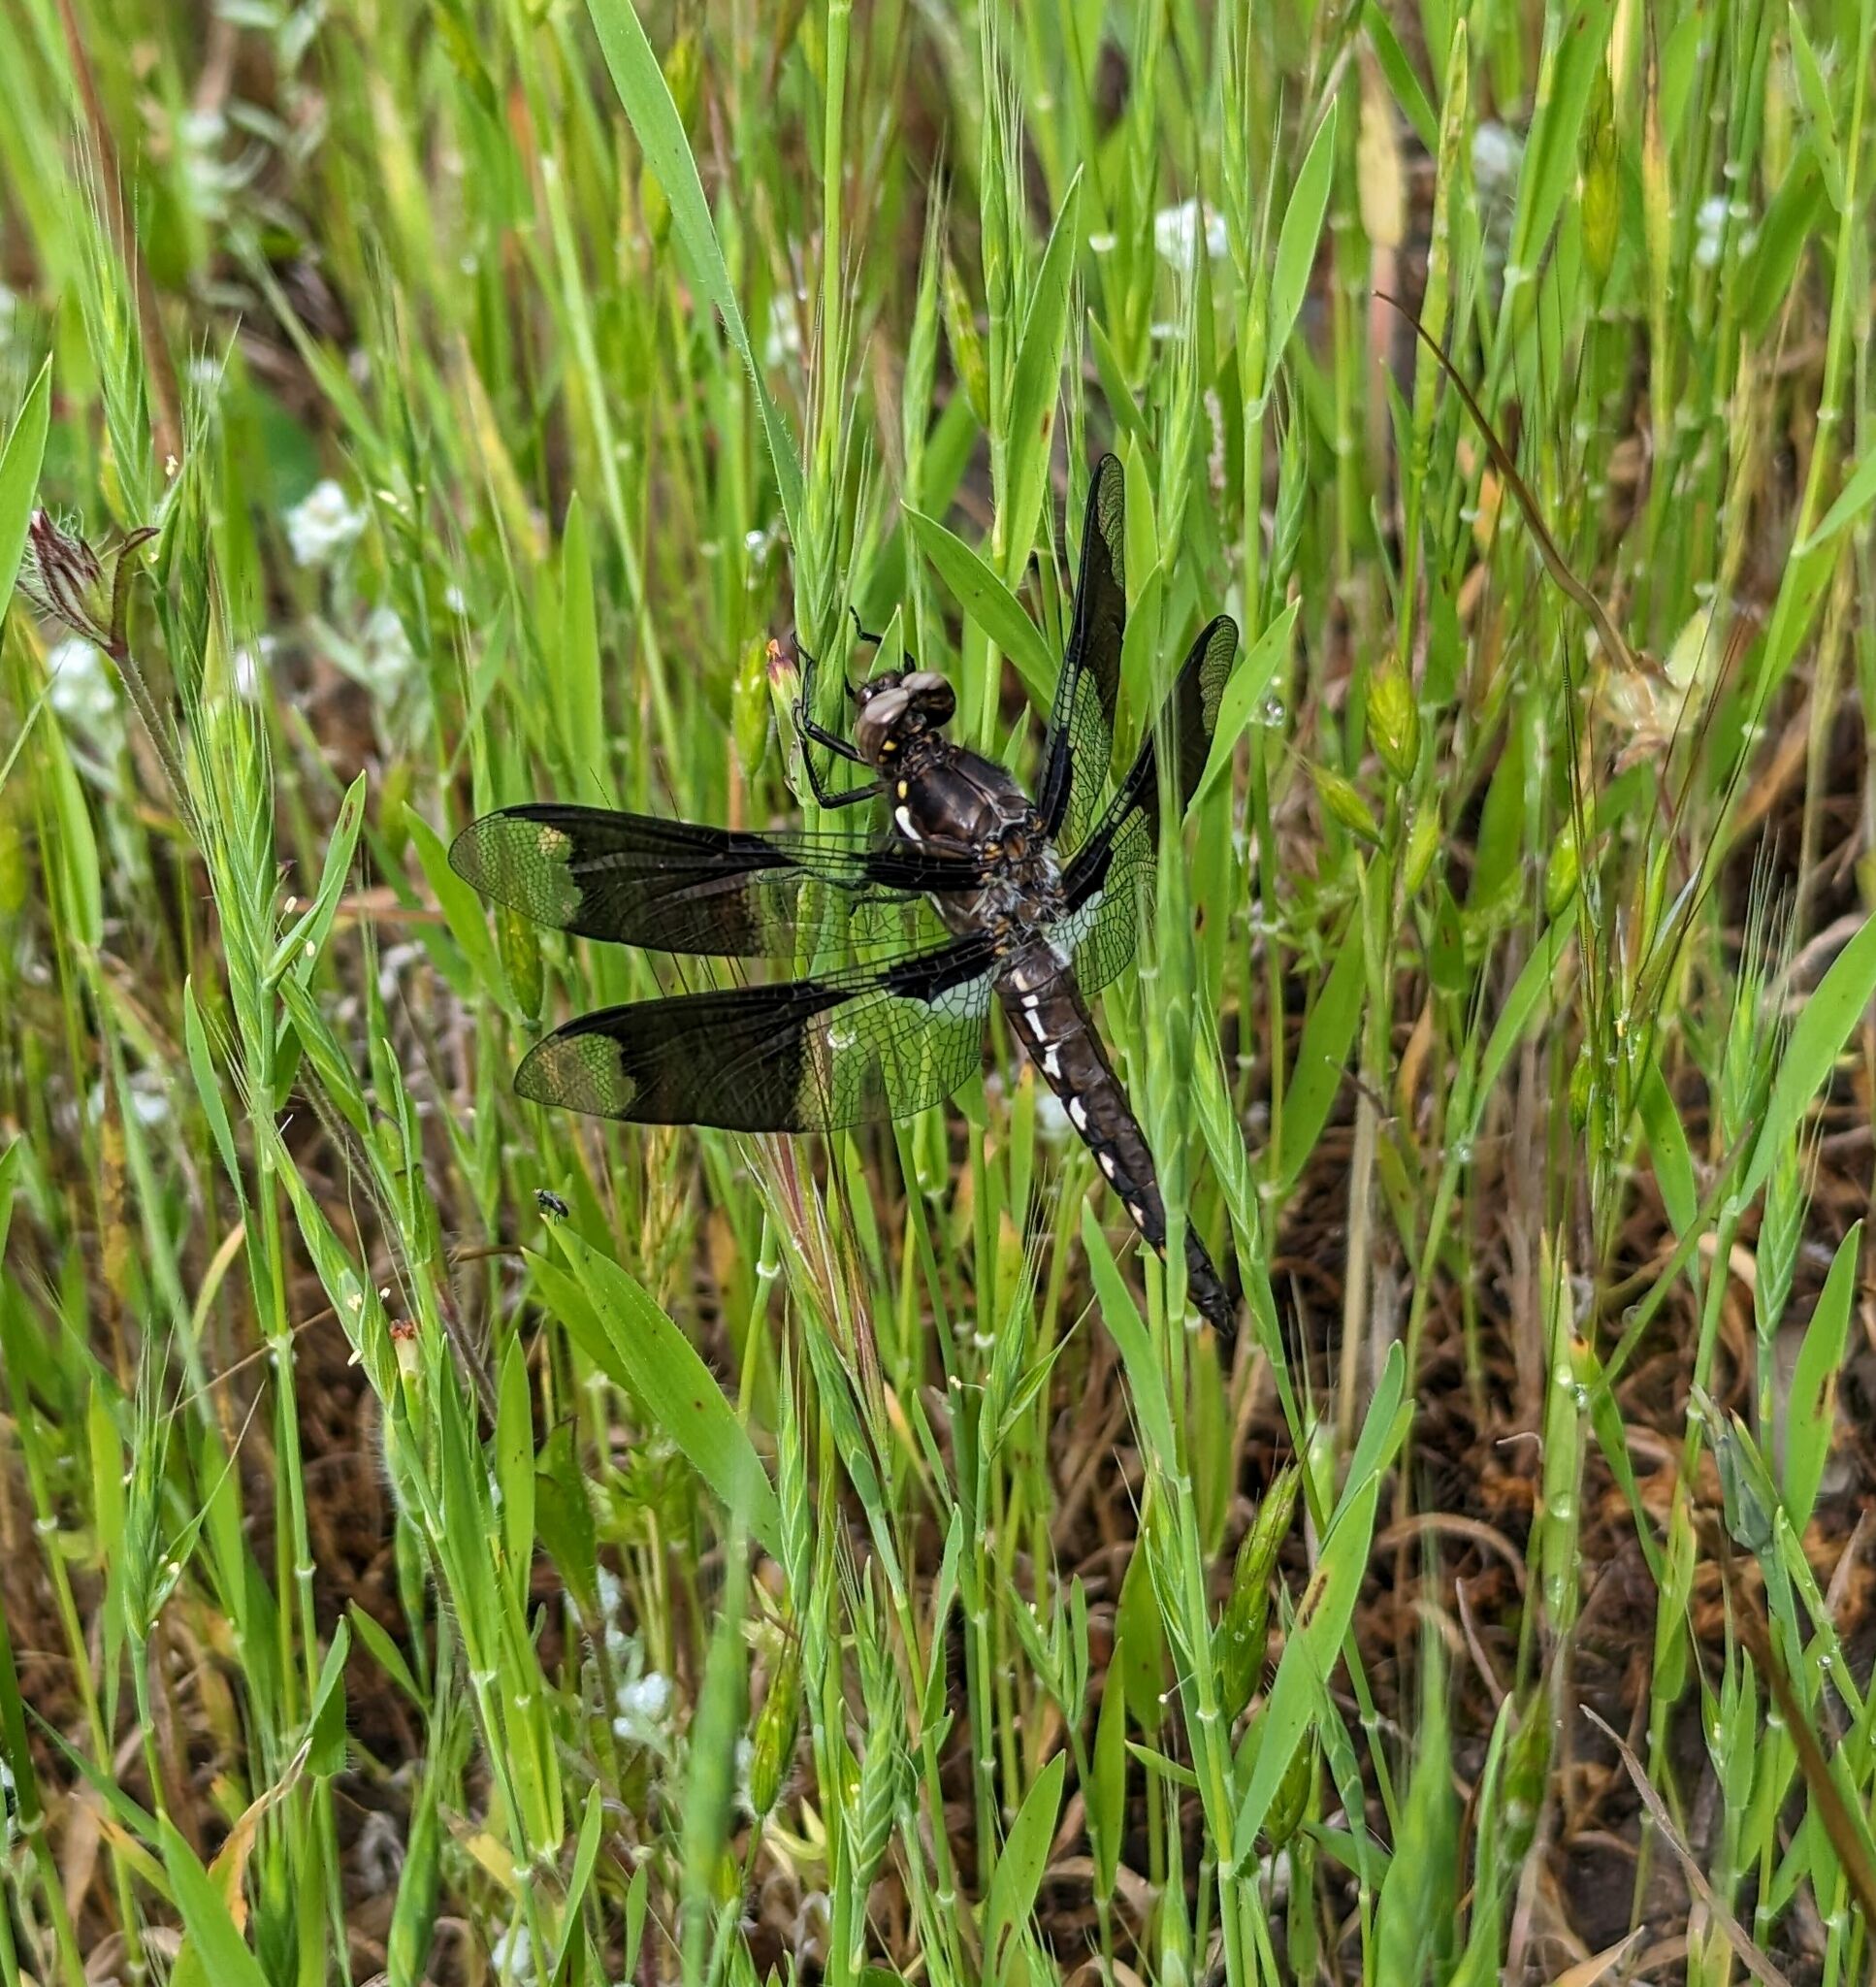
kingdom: Animalia
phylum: Arthropoda
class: Insecta
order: Odonata
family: Libellulidae
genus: Plathemis
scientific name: Plathemis lydia
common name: Common whitetail
